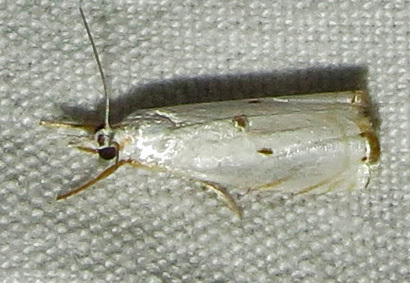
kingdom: Animalia
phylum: Arthropoda
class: Insecta
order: Lepidoptera
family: Crambidae
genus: Microcrambus
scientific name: Microcrambus biguttellus
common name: Gold-stripe grass-veneer moth
